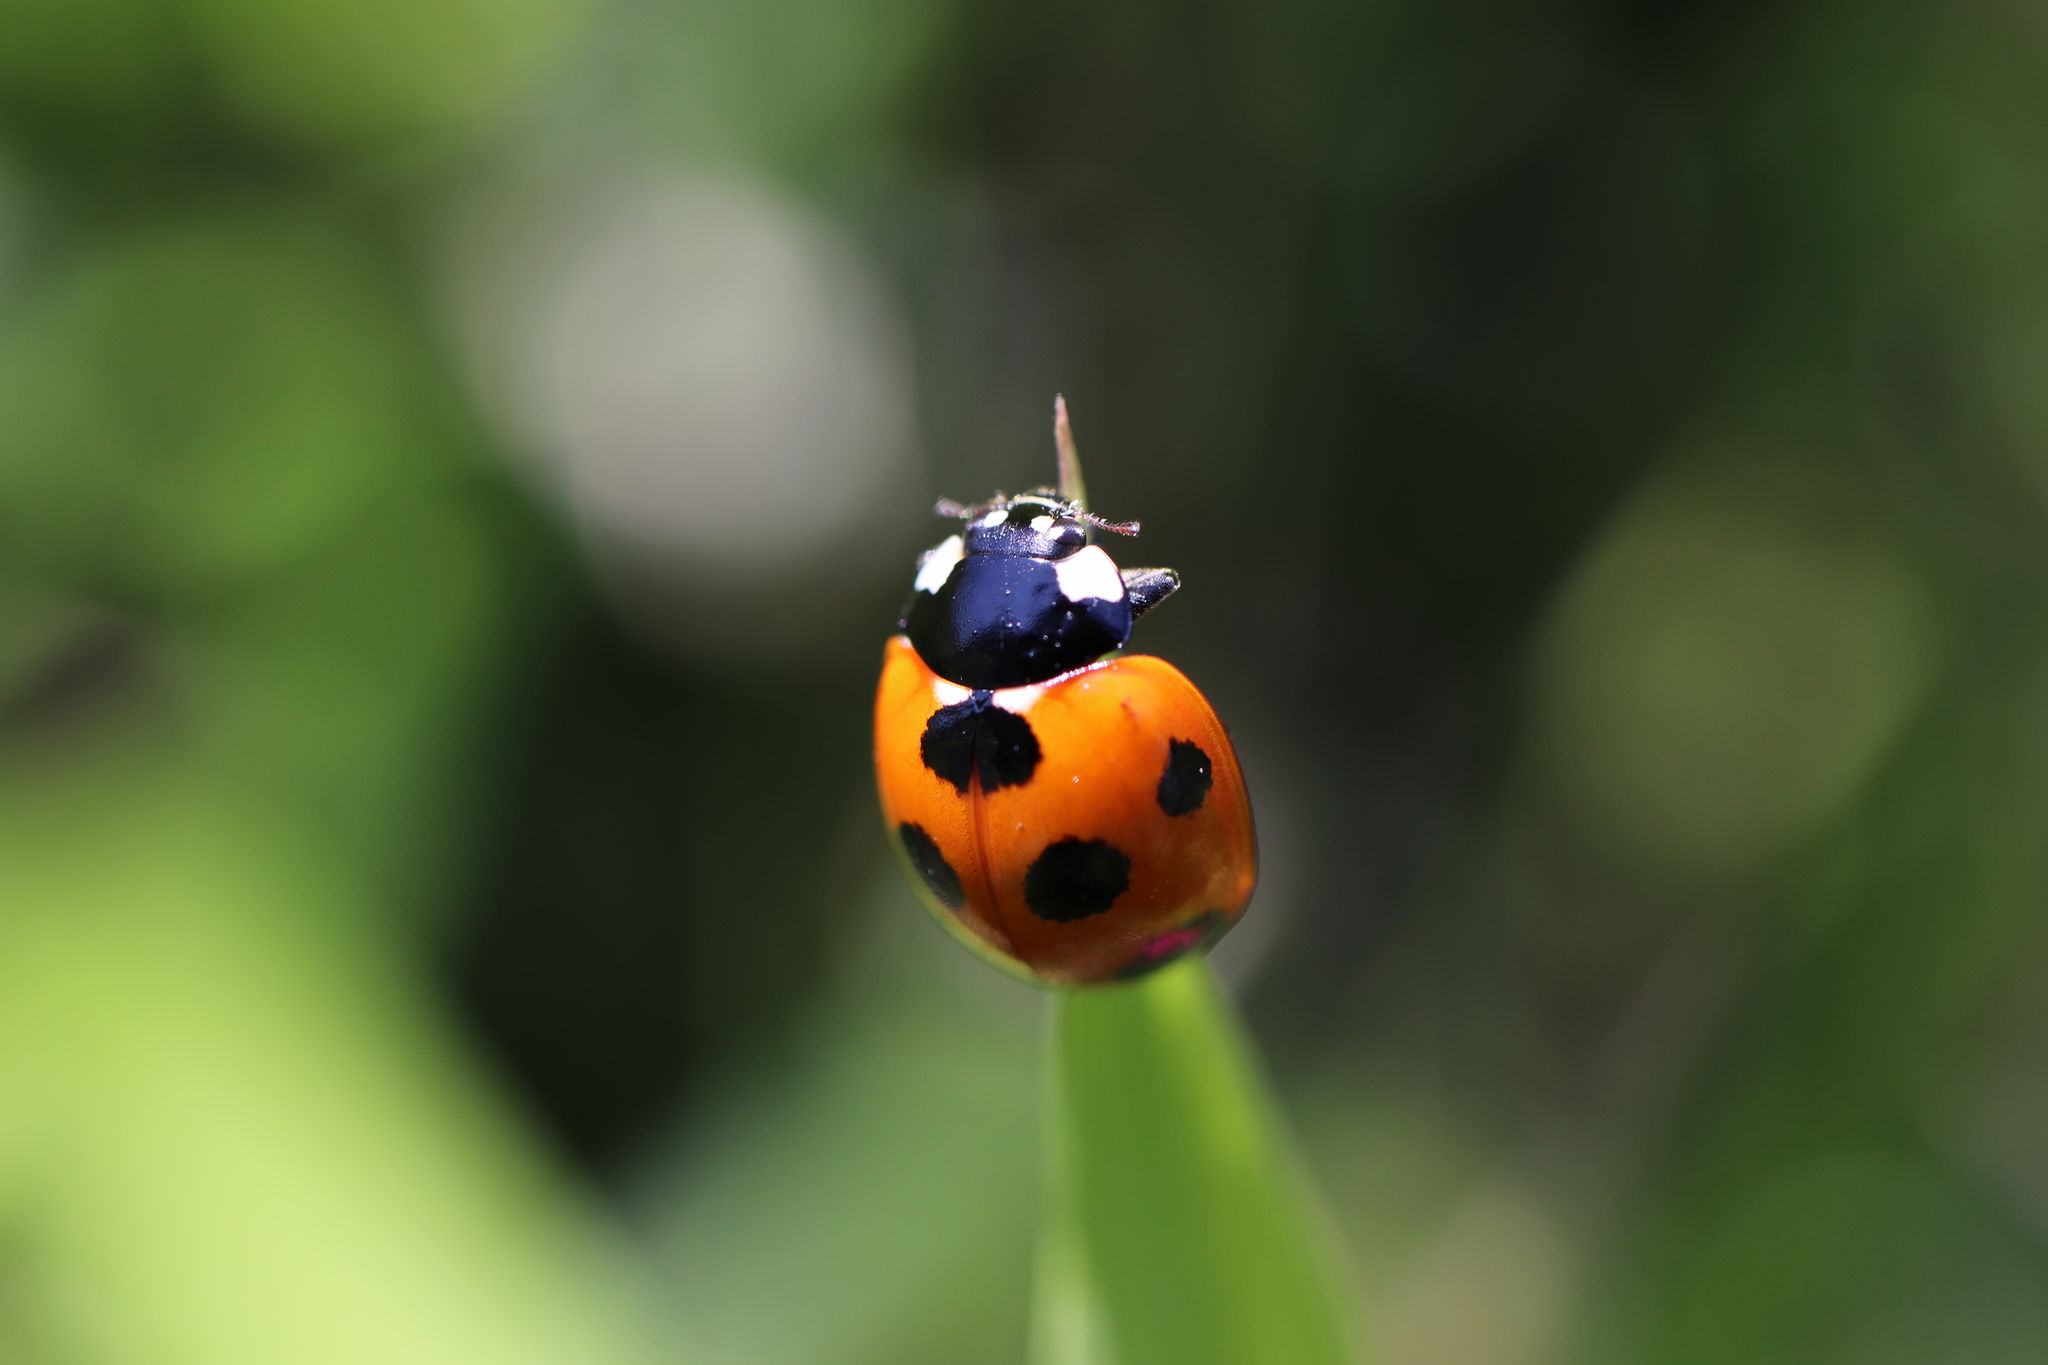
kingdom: Animalia
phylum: Arthropoda
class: Insecta
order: Coleoptera
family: Coccinellidae
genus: Coccinella
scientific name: Coccinella septempunctata
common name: Sevenspotted lady beetle
